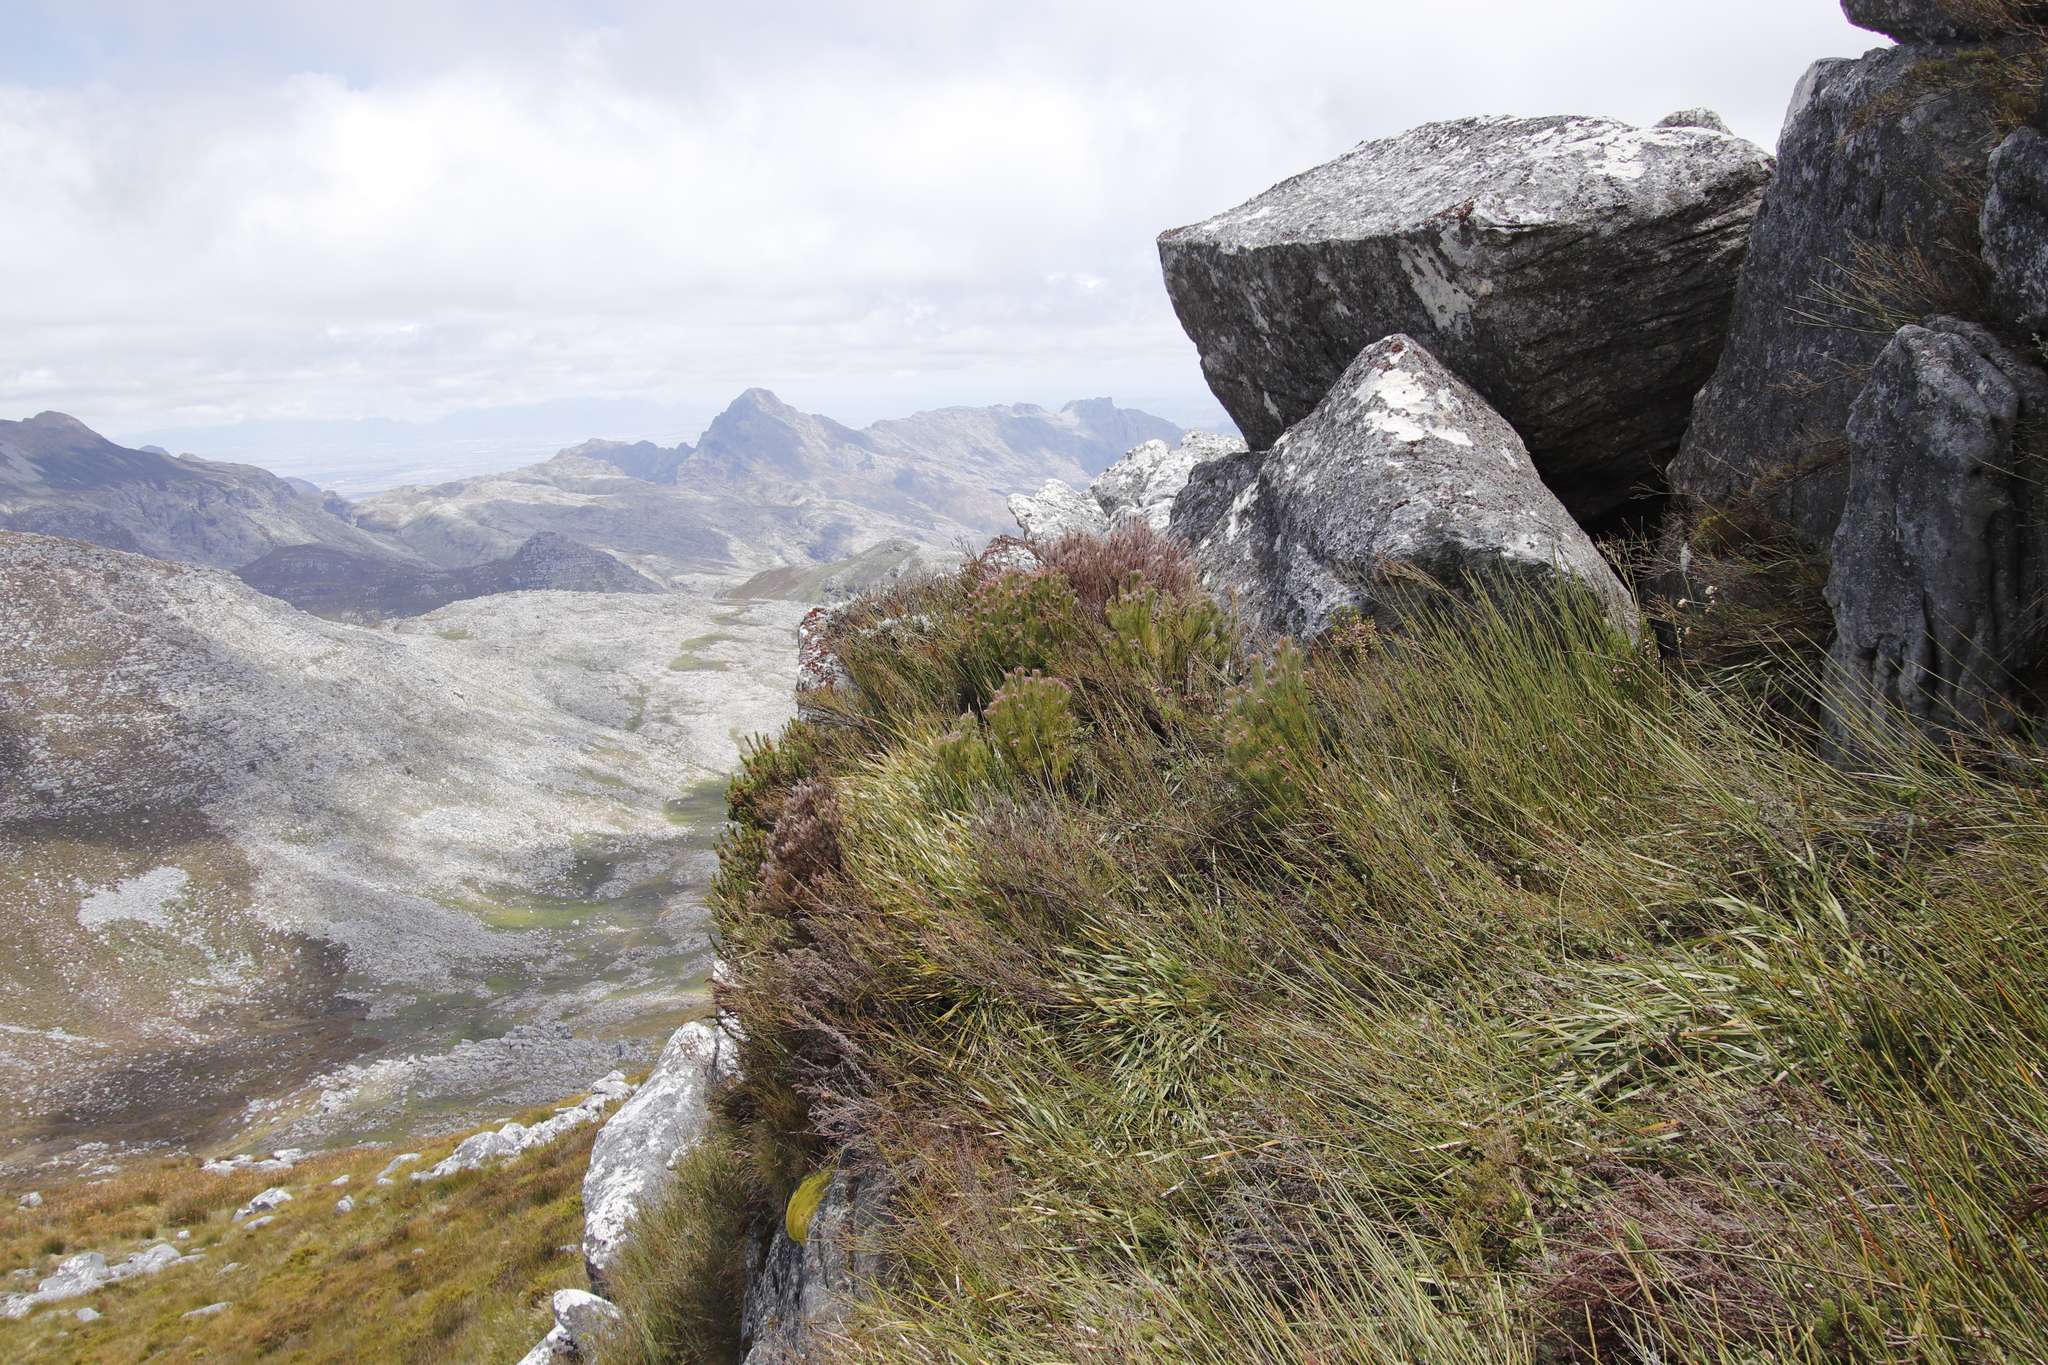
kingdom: Plantae
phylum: Tracheophyta
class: Magnoliopsida
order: Proteales
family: Proteaceae
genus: Spatalla
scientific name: Spatalla setacea
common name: Needle-leaf spoon
